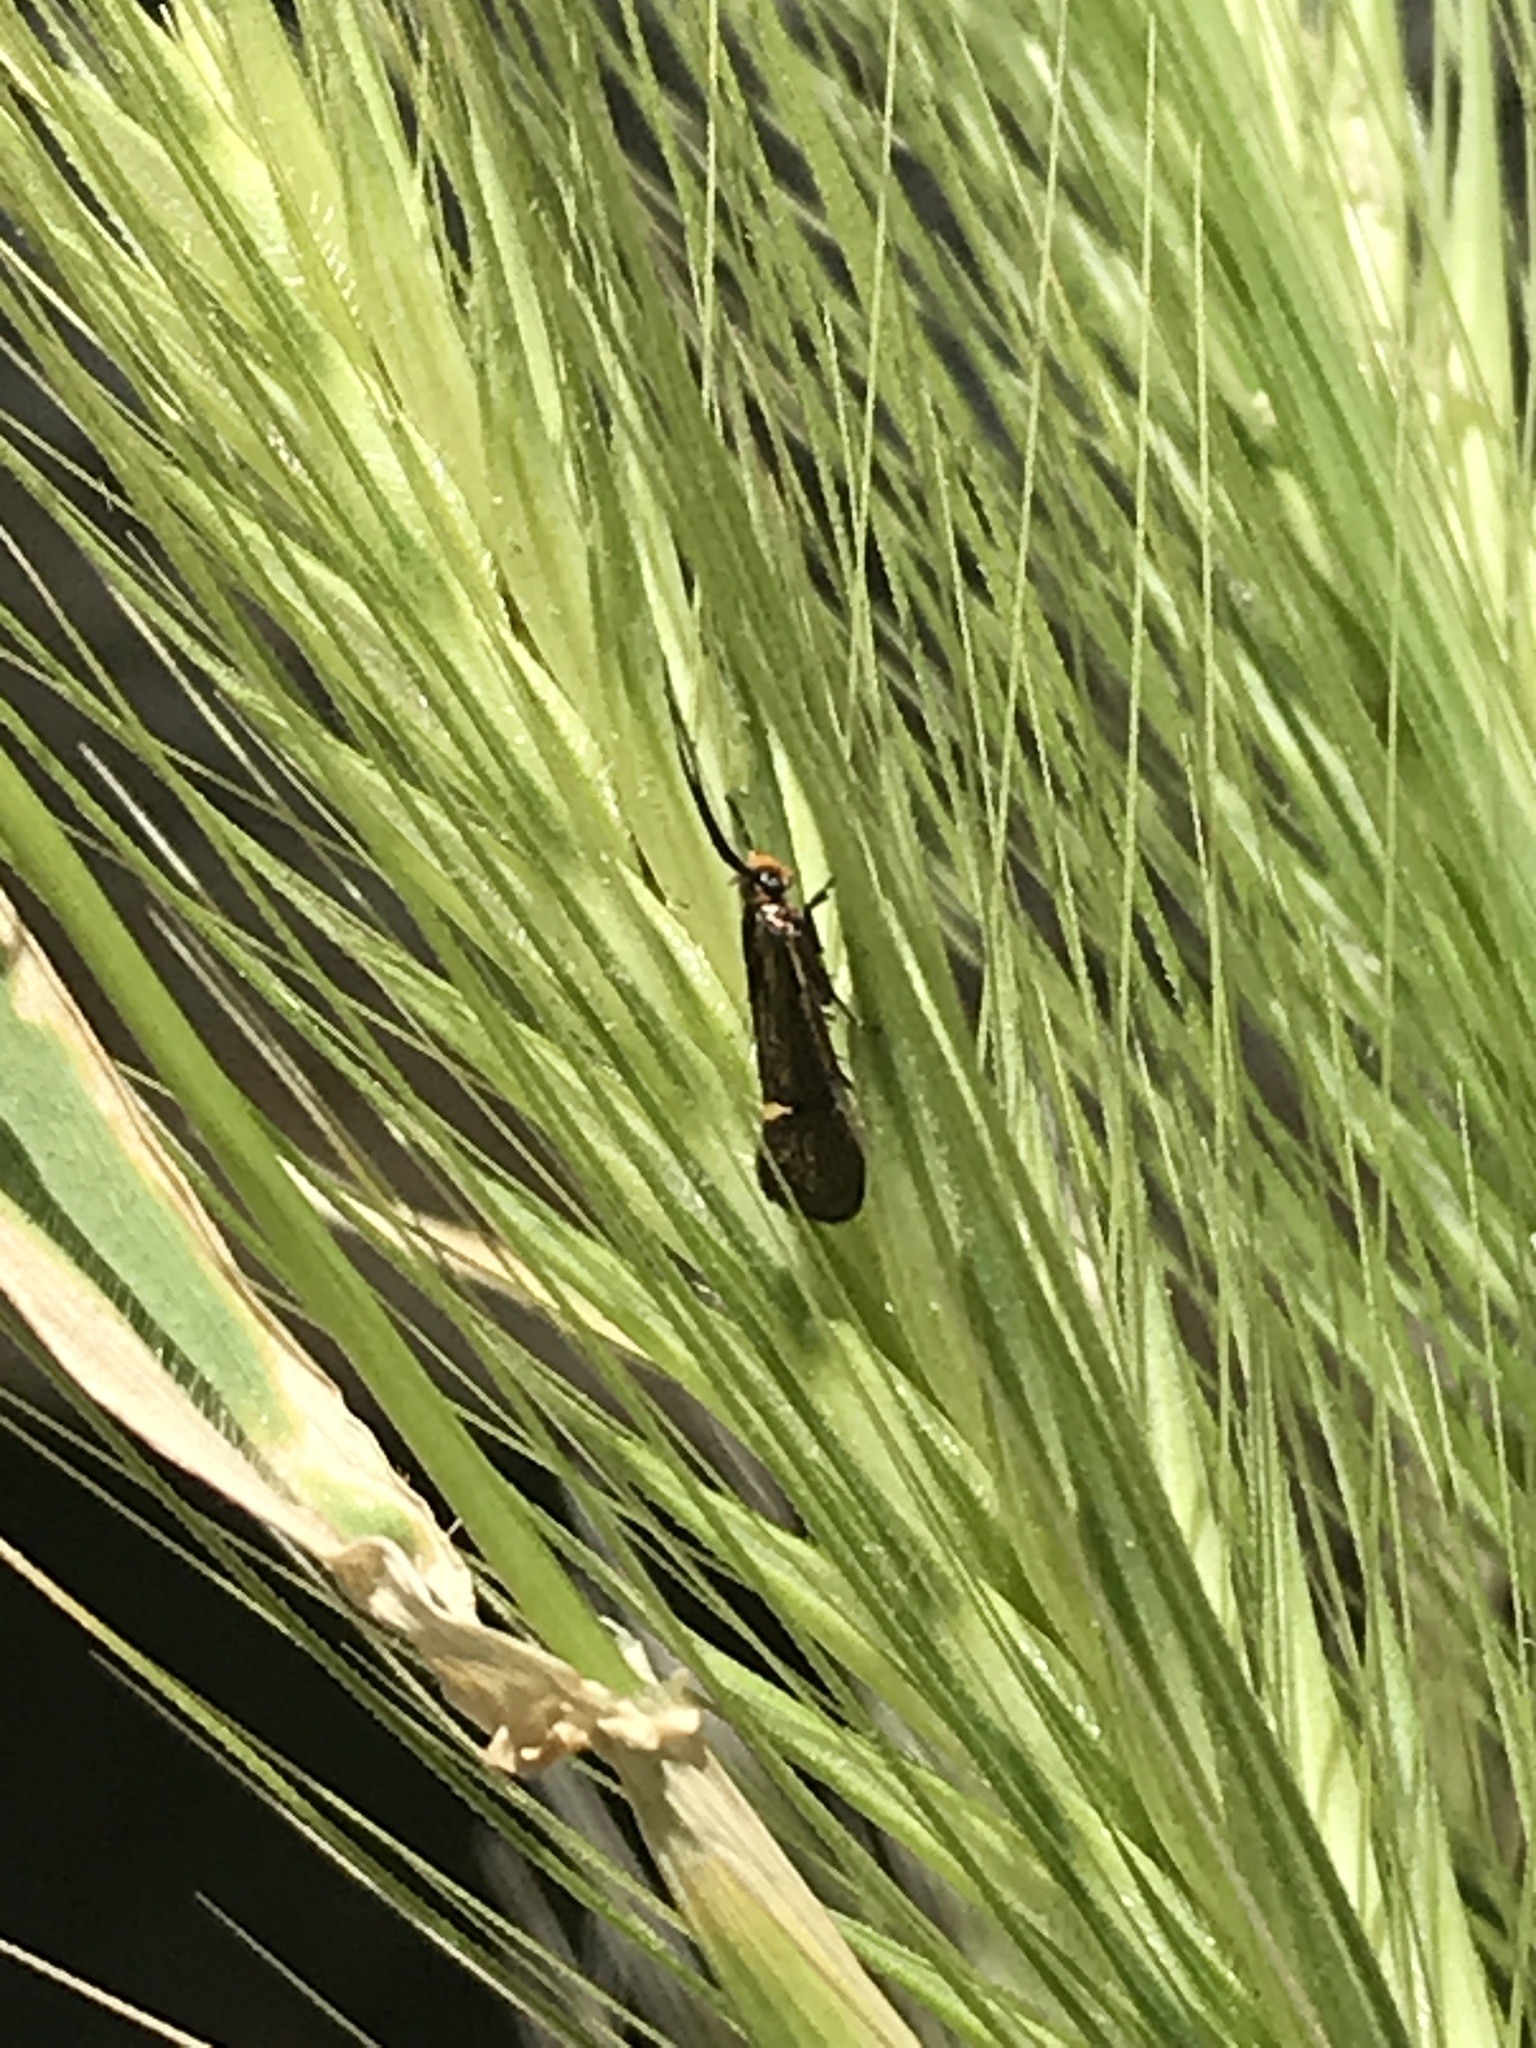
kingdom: Animalia
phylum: Arthropoda
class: Insecta
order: Lepidoptera
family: Oecophoridae
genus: Dafa
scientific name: Dafa Esperia sulphurella
